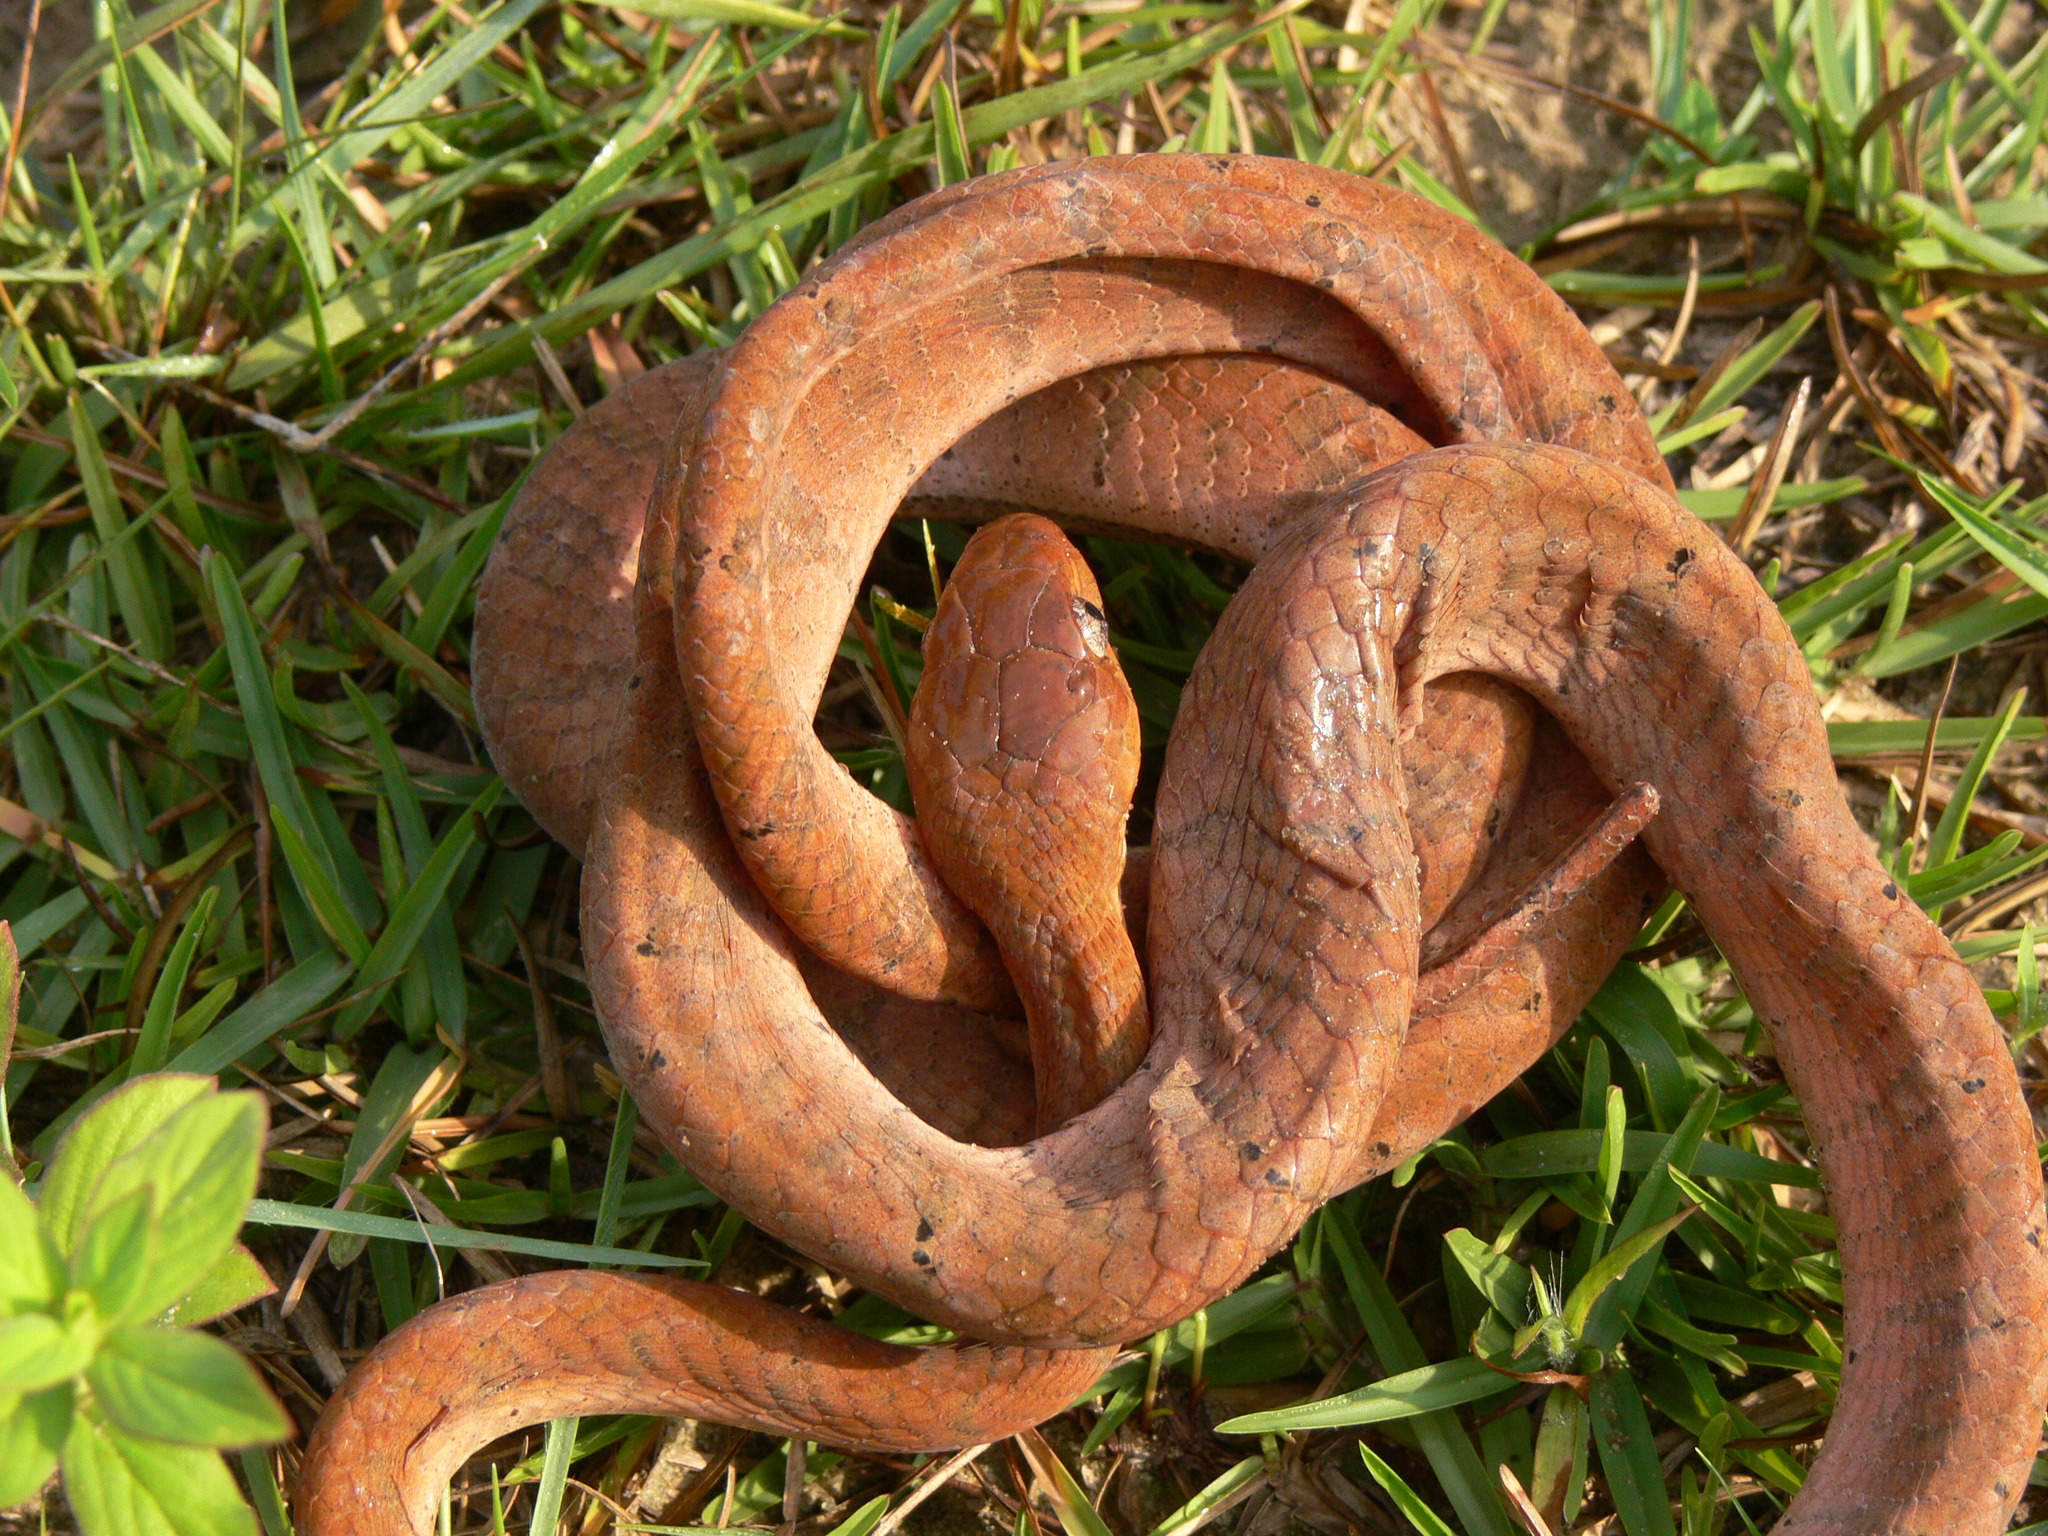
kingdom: Animalia
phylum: Chordata
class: Squamata
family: Colubridae
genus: Toxicodryas
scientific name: Toxicodryas adamanteus
